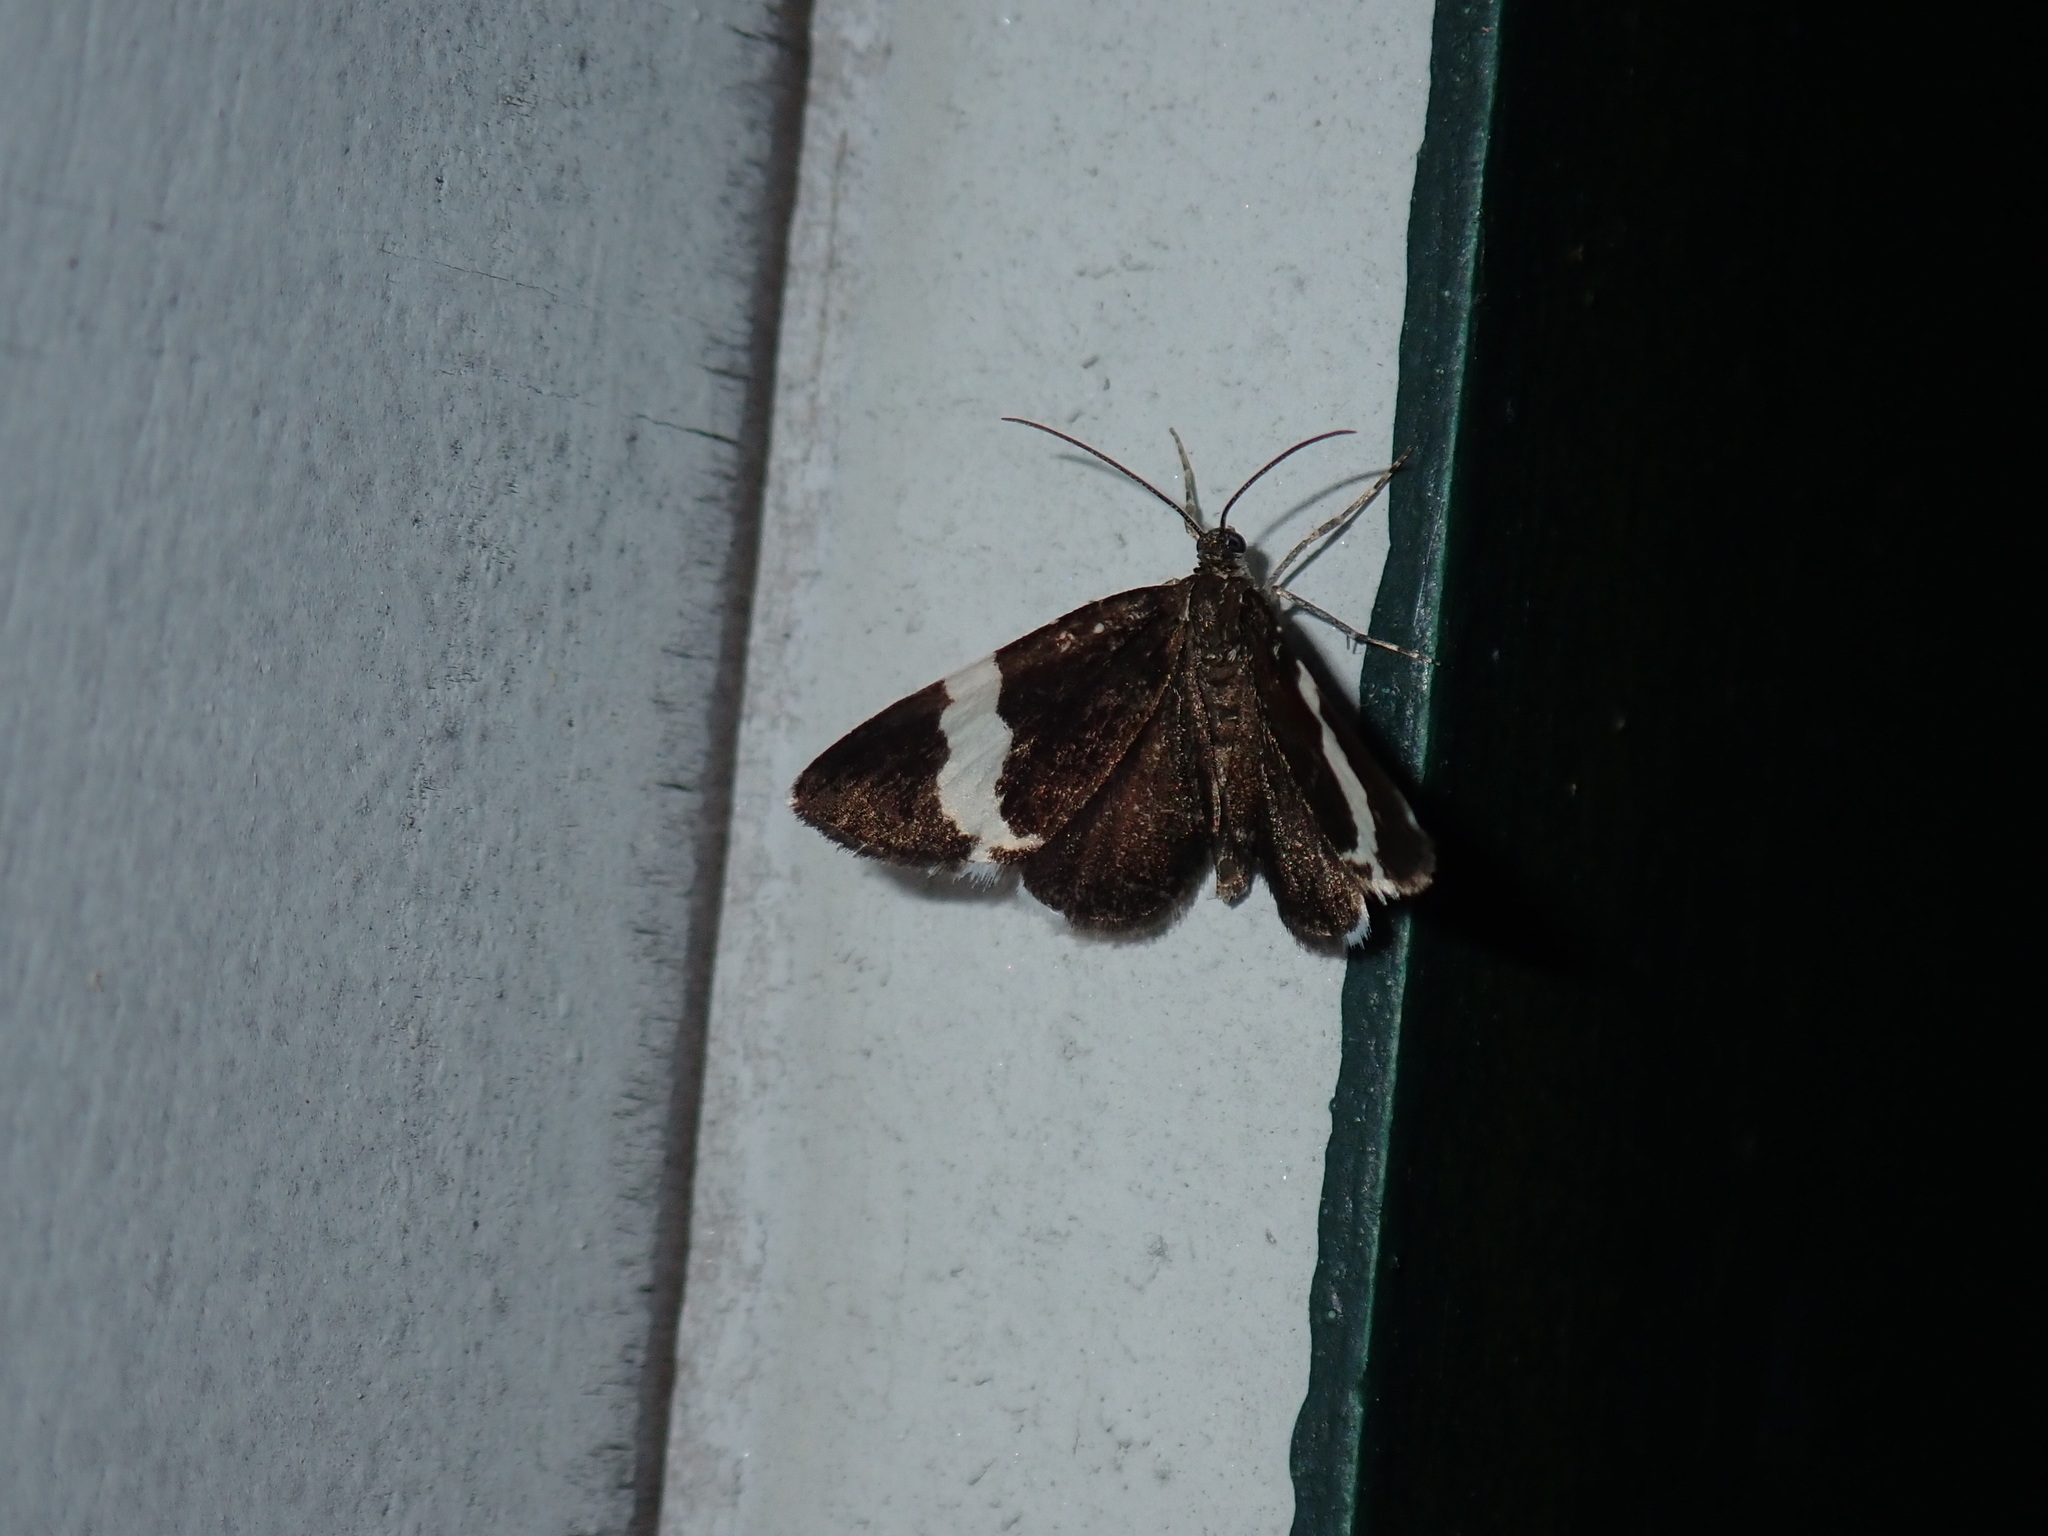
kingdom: Animalia
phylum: Arthropoda
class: Insecta
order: Lepidoptera
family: Geometridae
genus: Trichodezia
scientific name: Trichodezia albovittata
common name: White striped black
